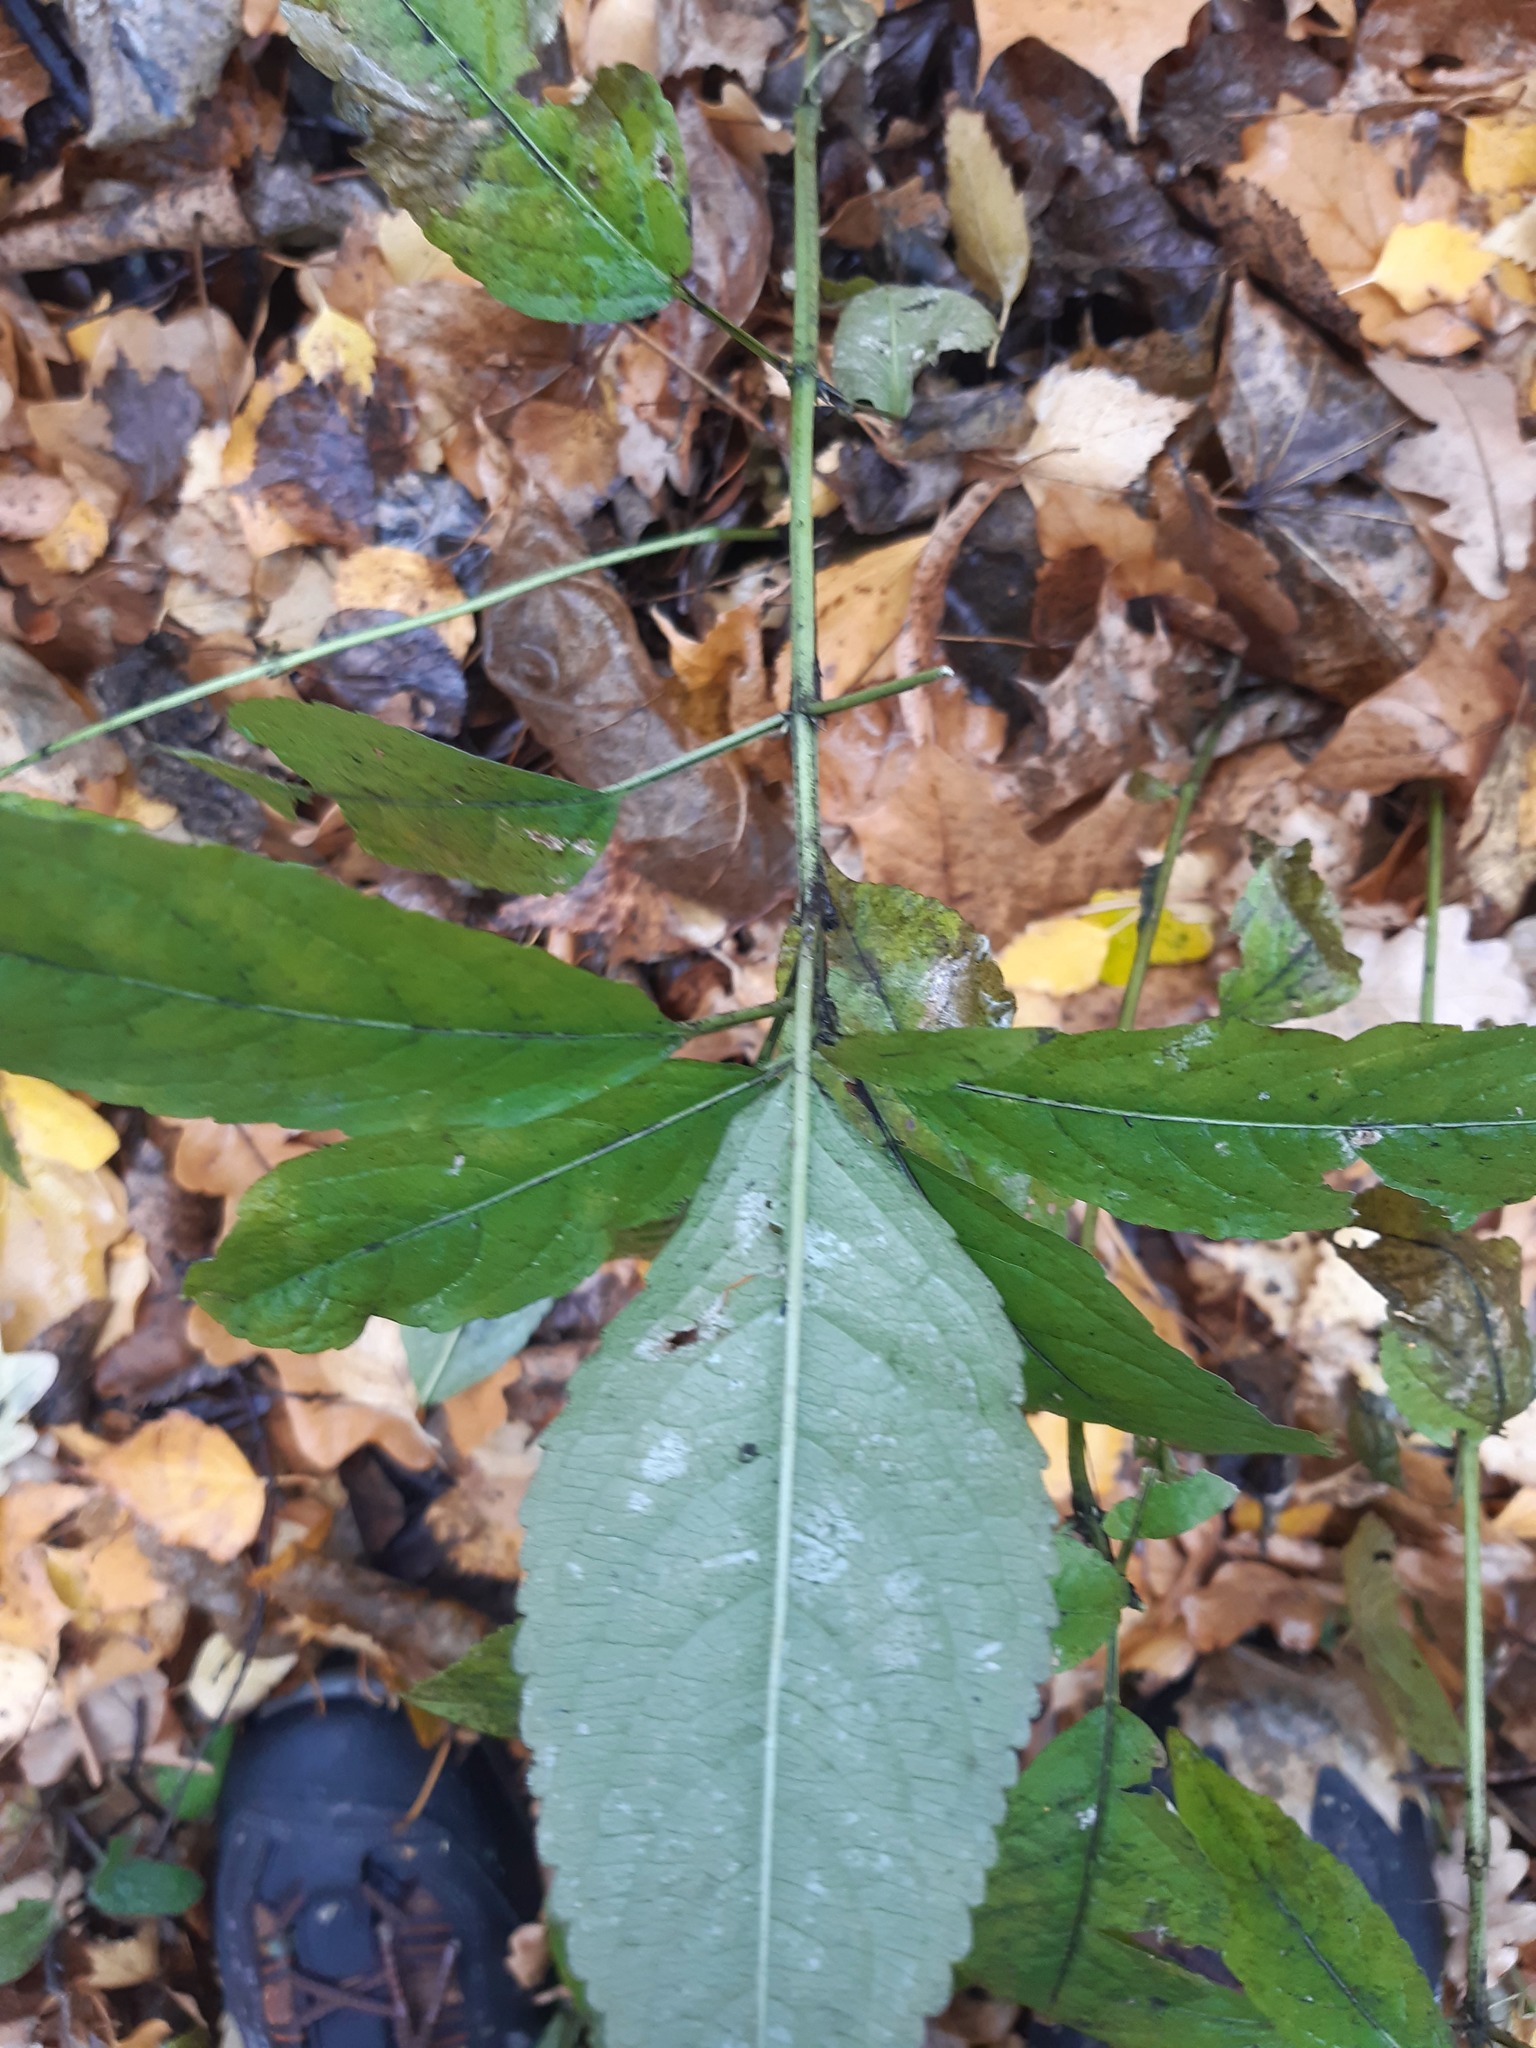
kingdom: Plantae
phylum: Tracheophyta
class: Magnoliopsida
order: Malpighiales
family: Euphorbiaceae
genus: Mercurialis
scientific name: Mercurialis perennis
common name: Dog mercury
